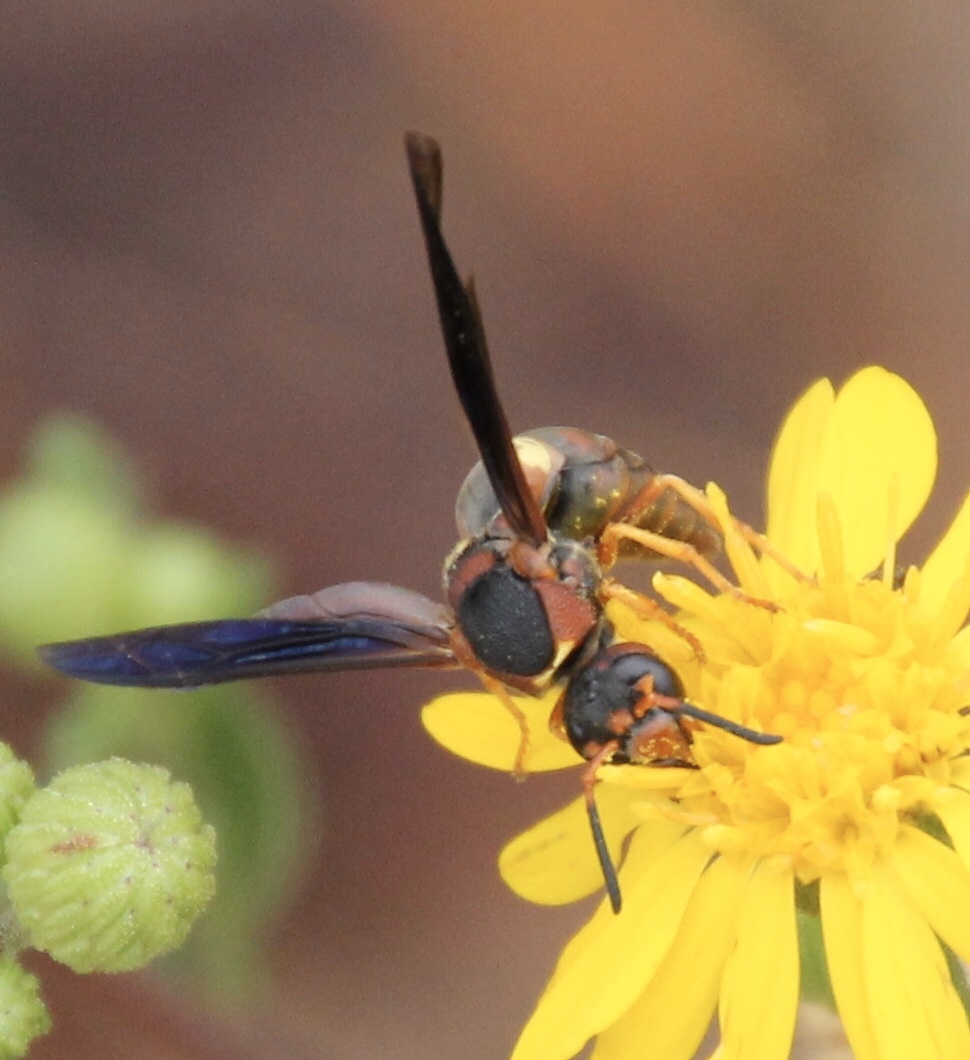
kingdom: Animalia
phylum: Arthropoda
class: Insecta
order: Hymenoptera
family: Eumenidae
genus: Euodynerus
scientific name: Euodynerus crypticus
